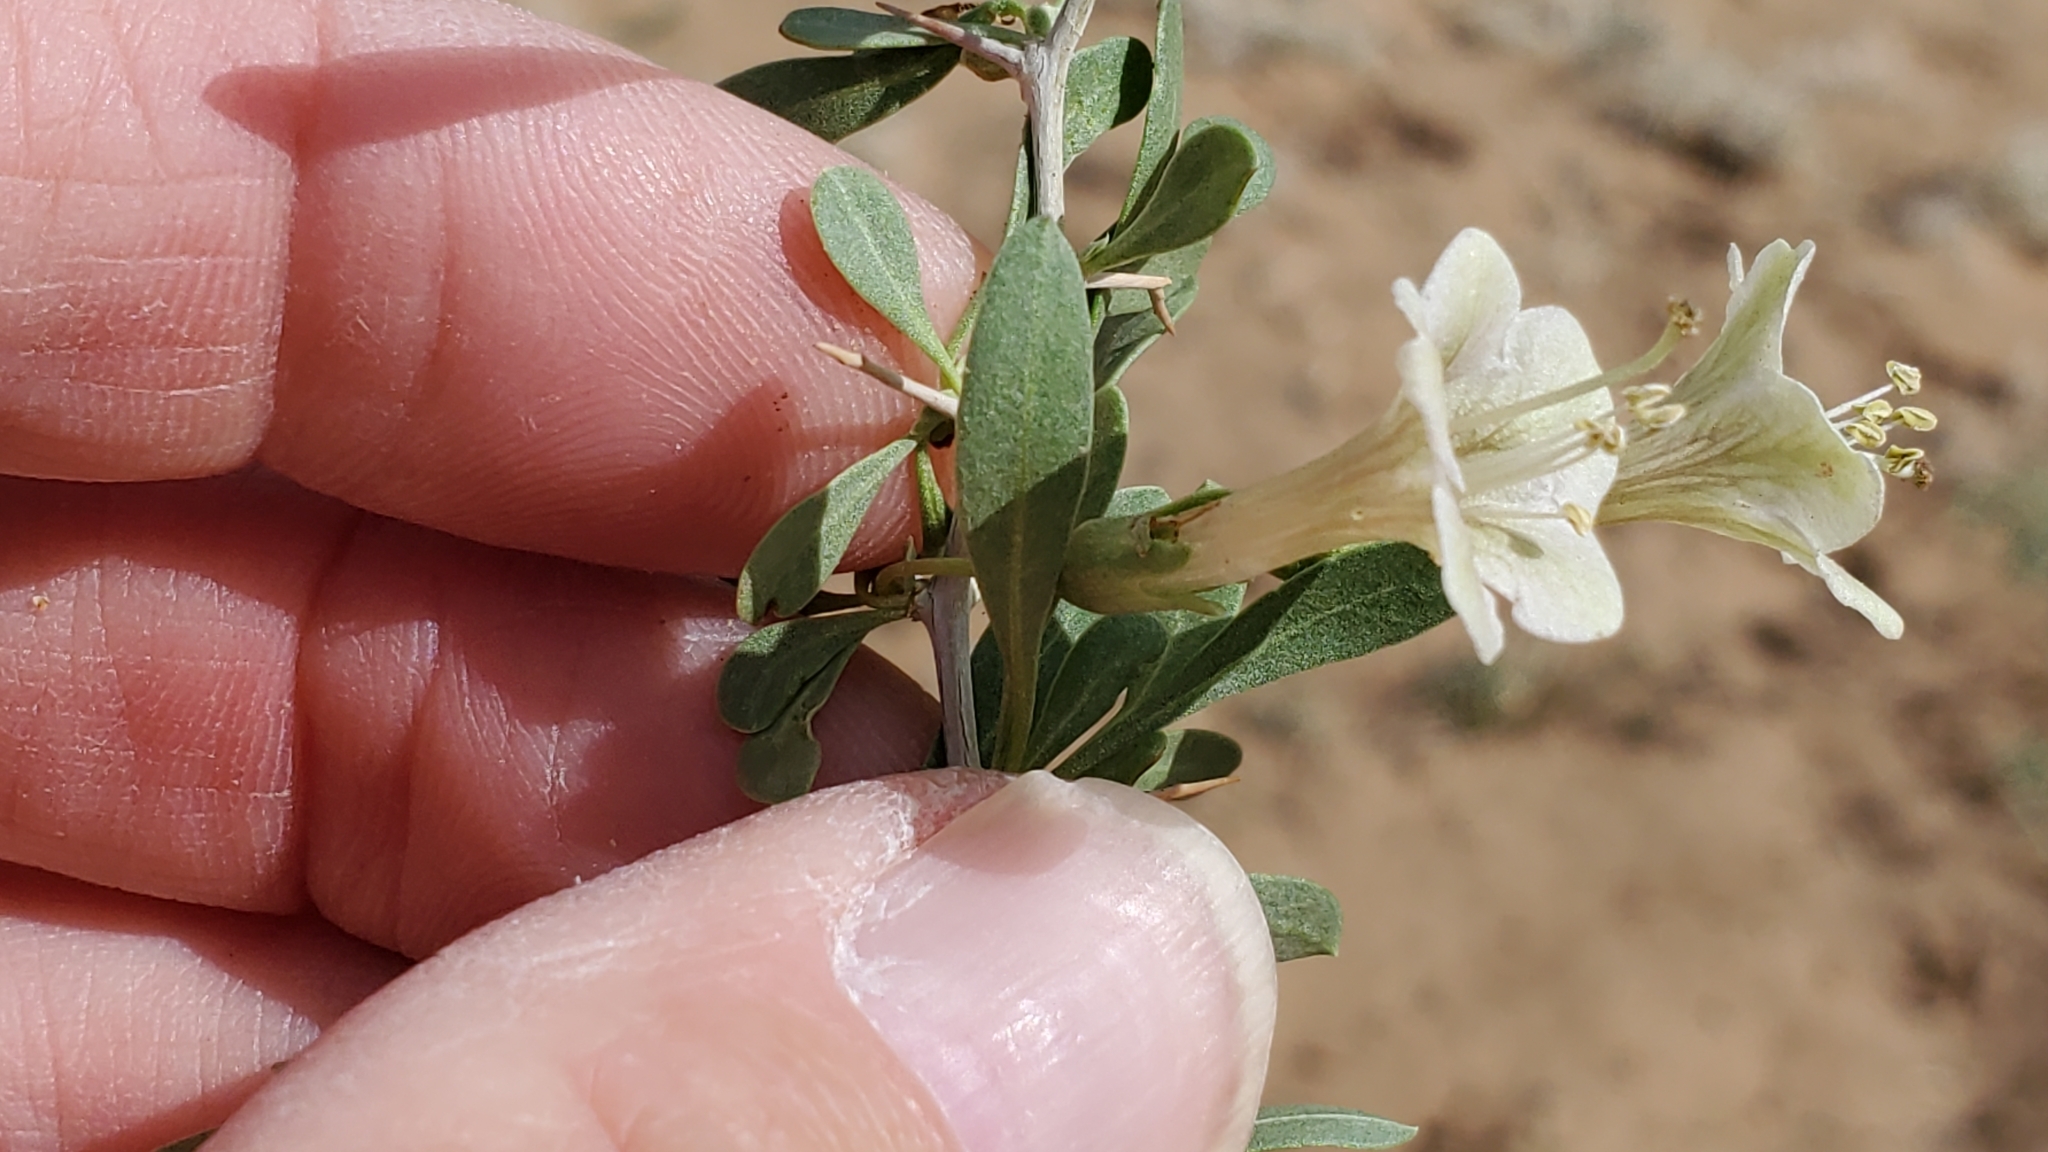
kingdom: Plantae
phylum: Tracheophyta
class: Magnoliopsida
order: Solanales
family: Solanaceae
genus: Lycium
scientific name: Lycium pallidum
